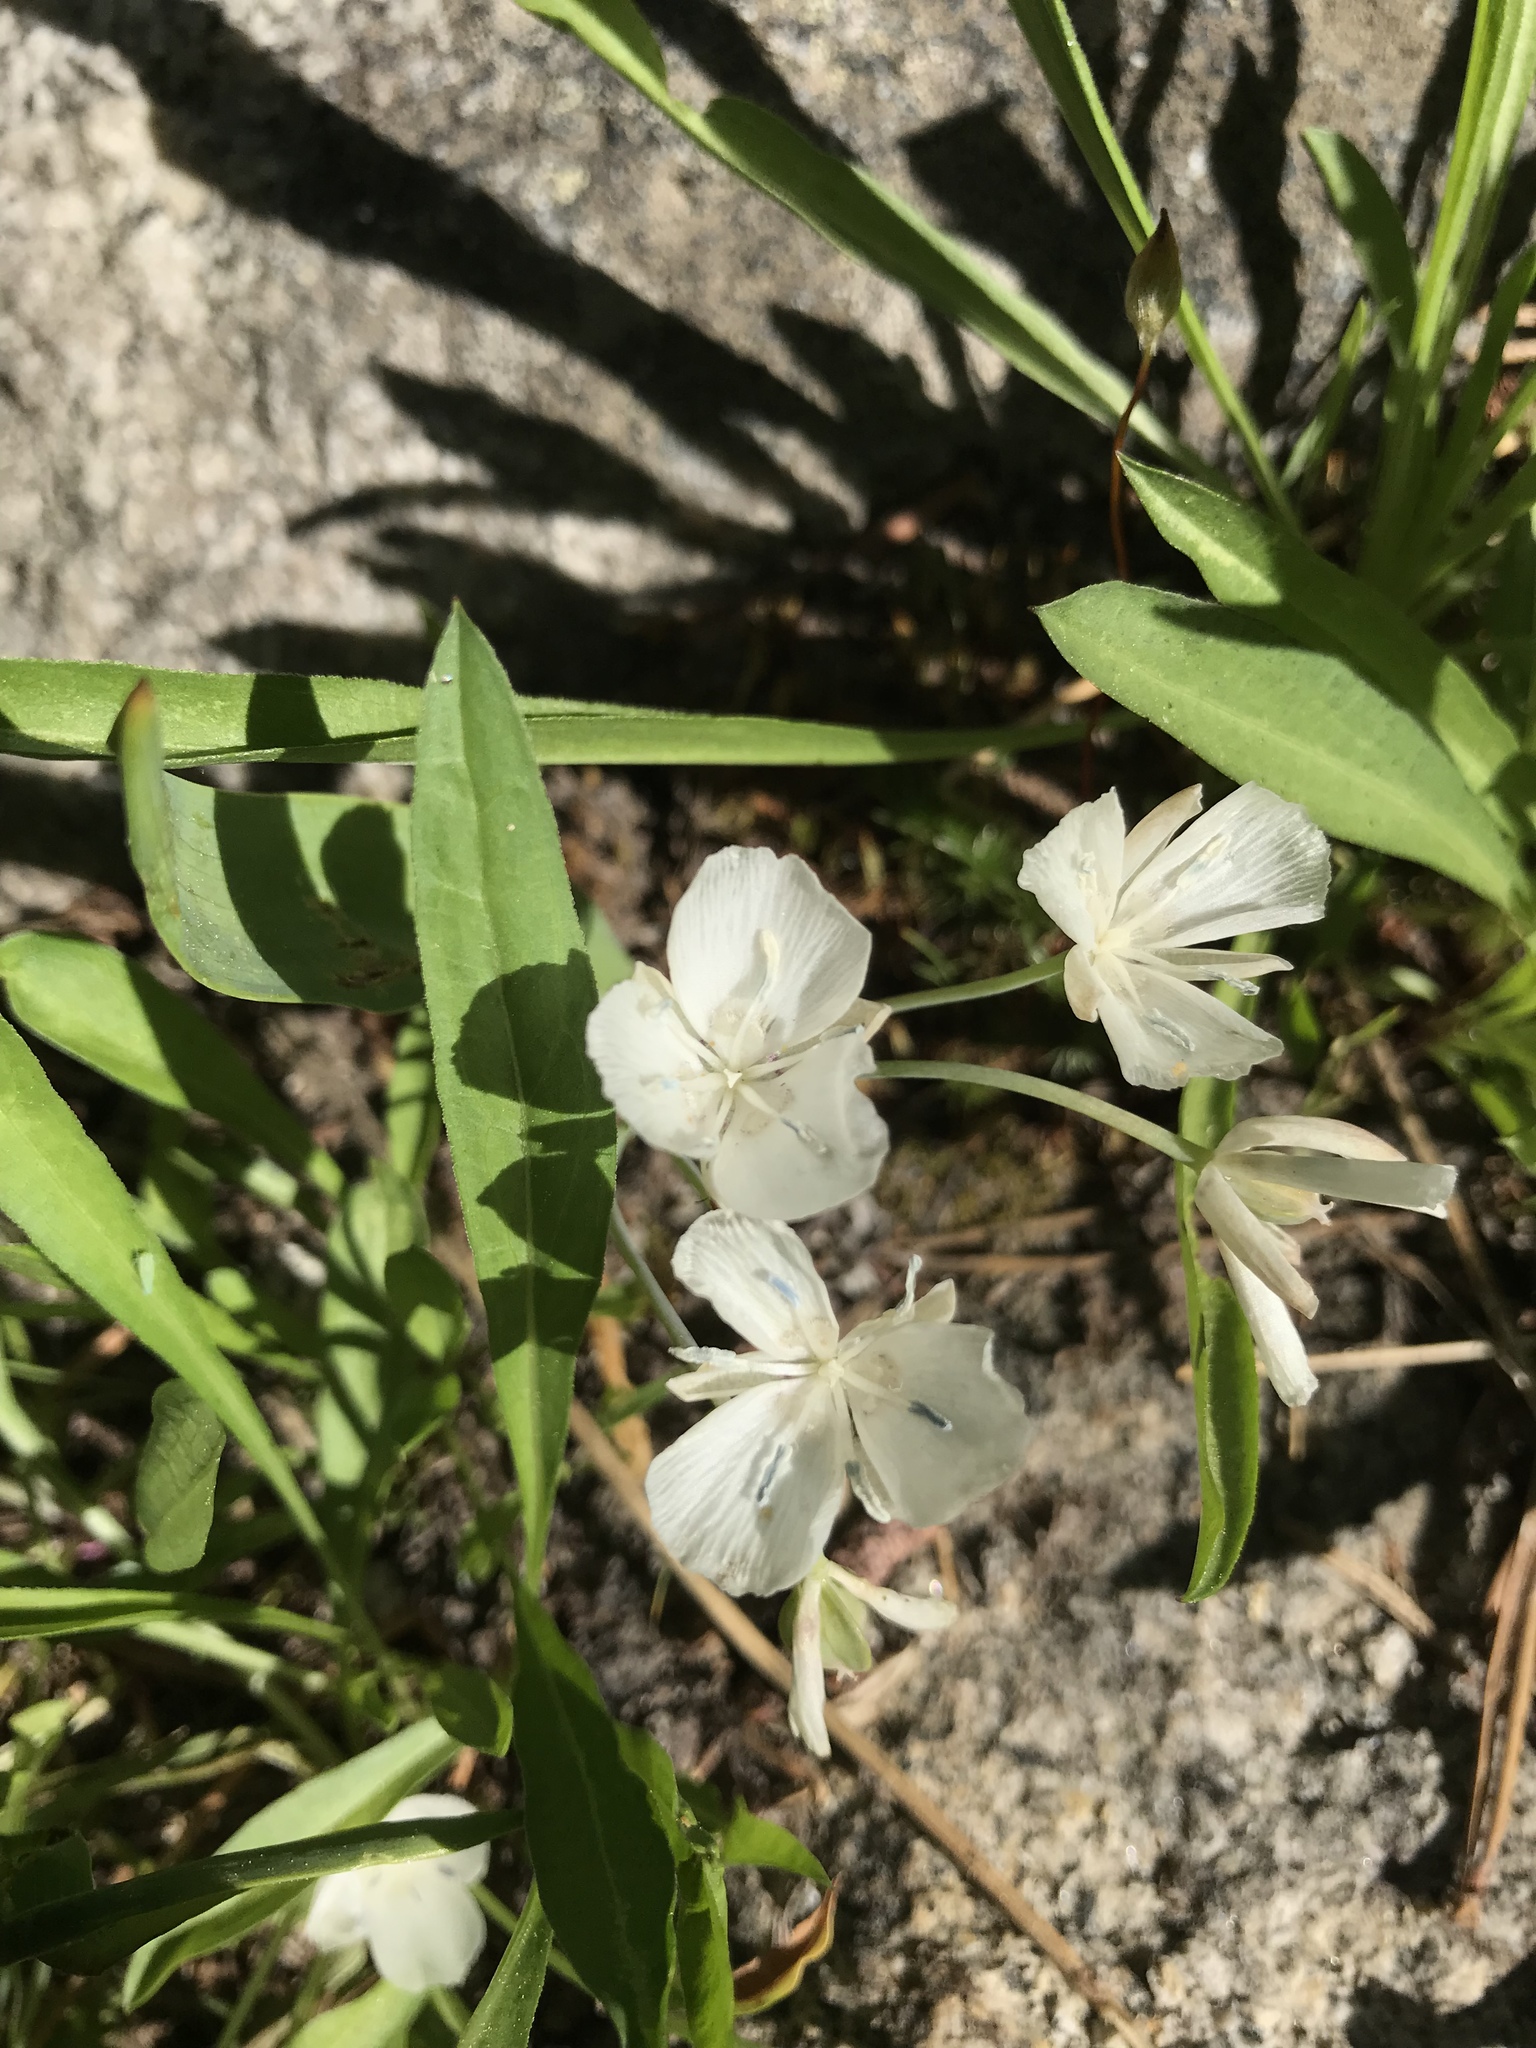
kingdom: Plantae
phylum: Tracheophyta
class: Liliopsida
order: Liliales
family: Liliaceae
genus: Calochortus
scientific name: Calochortus
